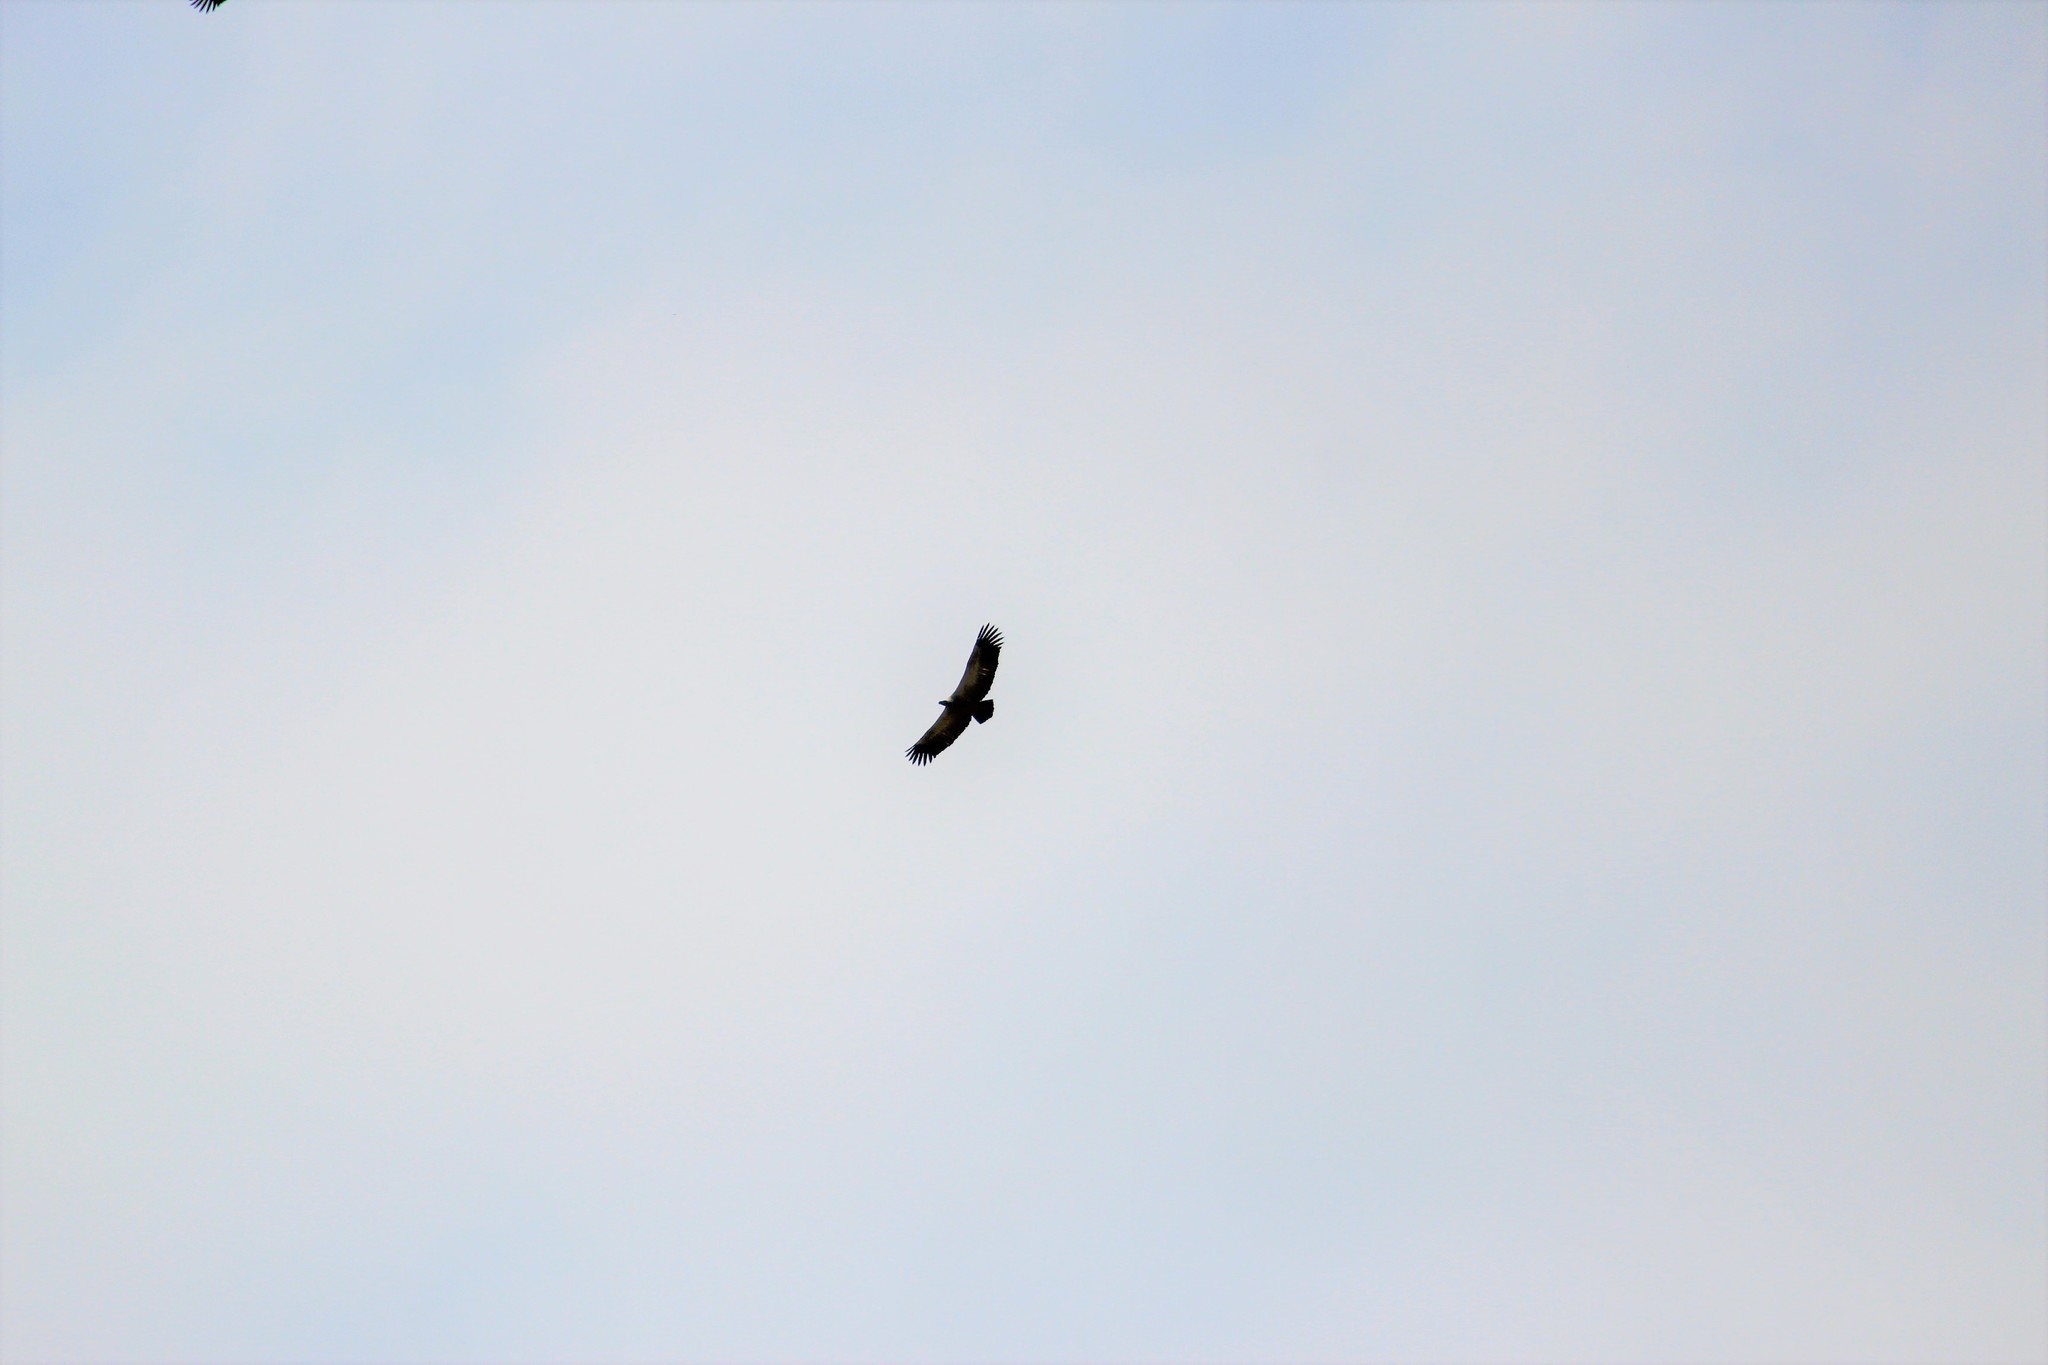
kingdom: Animalia
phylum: Chordata
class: Aves
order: Accipitriformes
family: Accipitridae
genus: Gyps
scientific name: Gyps coprotheres
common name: Cape vulture
